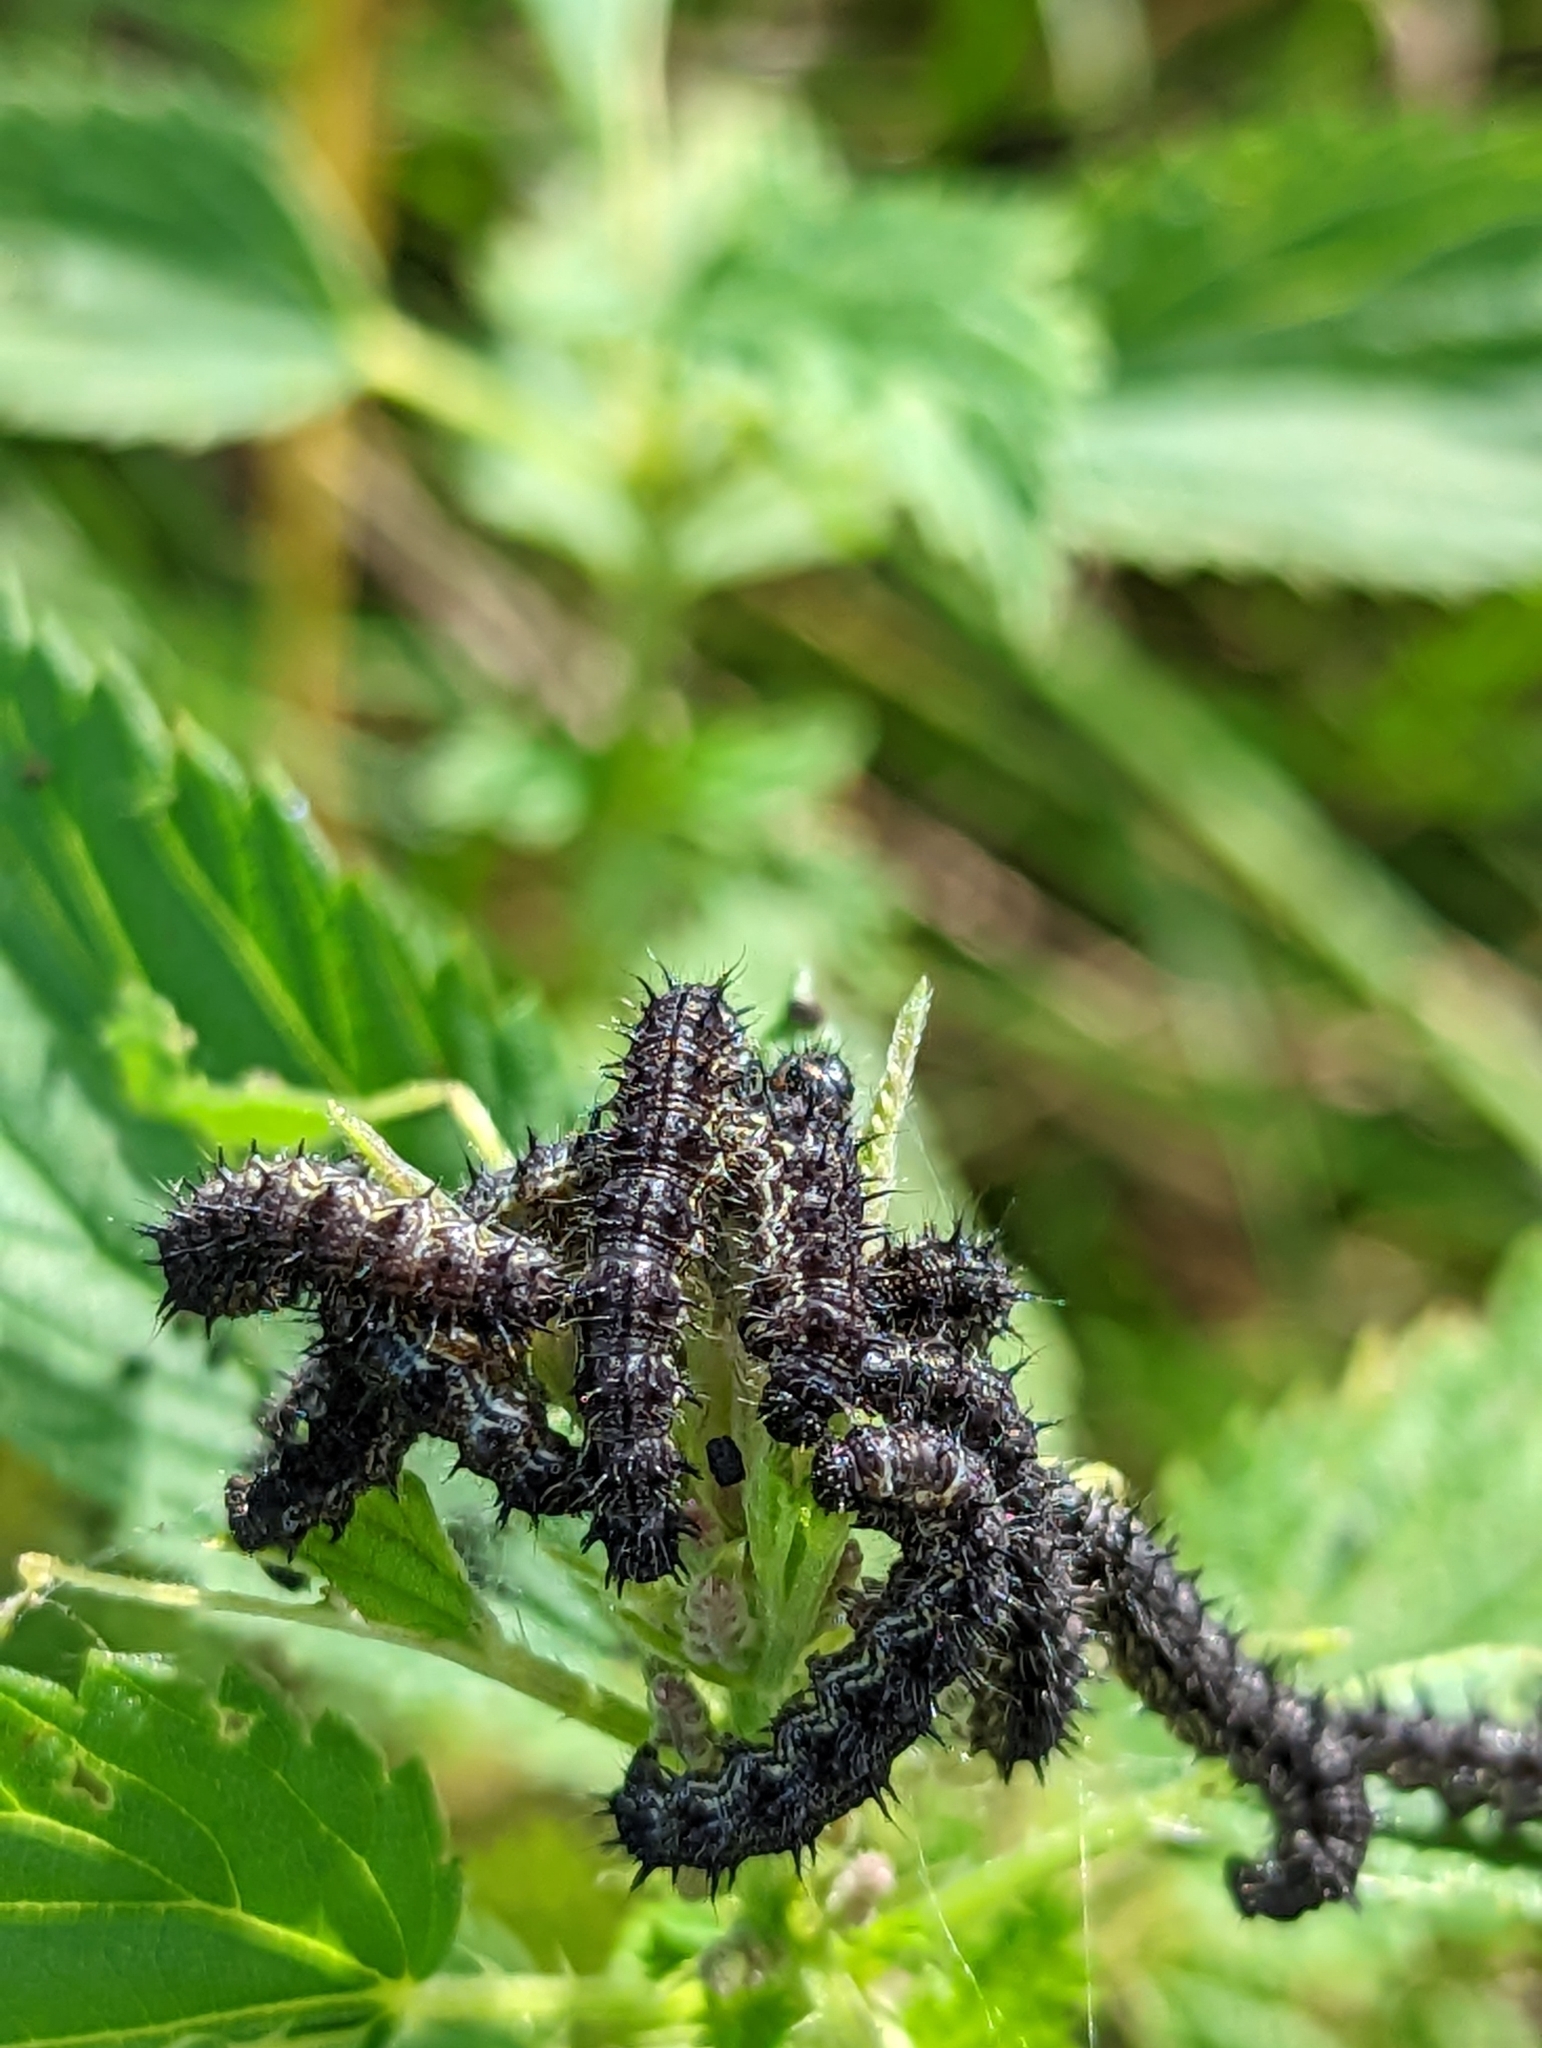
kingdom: Animalia
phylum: Arthropoda
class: Insecta
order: Lepidoptera
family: Nymphalidae
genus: Aglais
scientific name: Aglais milberti
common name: Milbert's tortoiseshell
